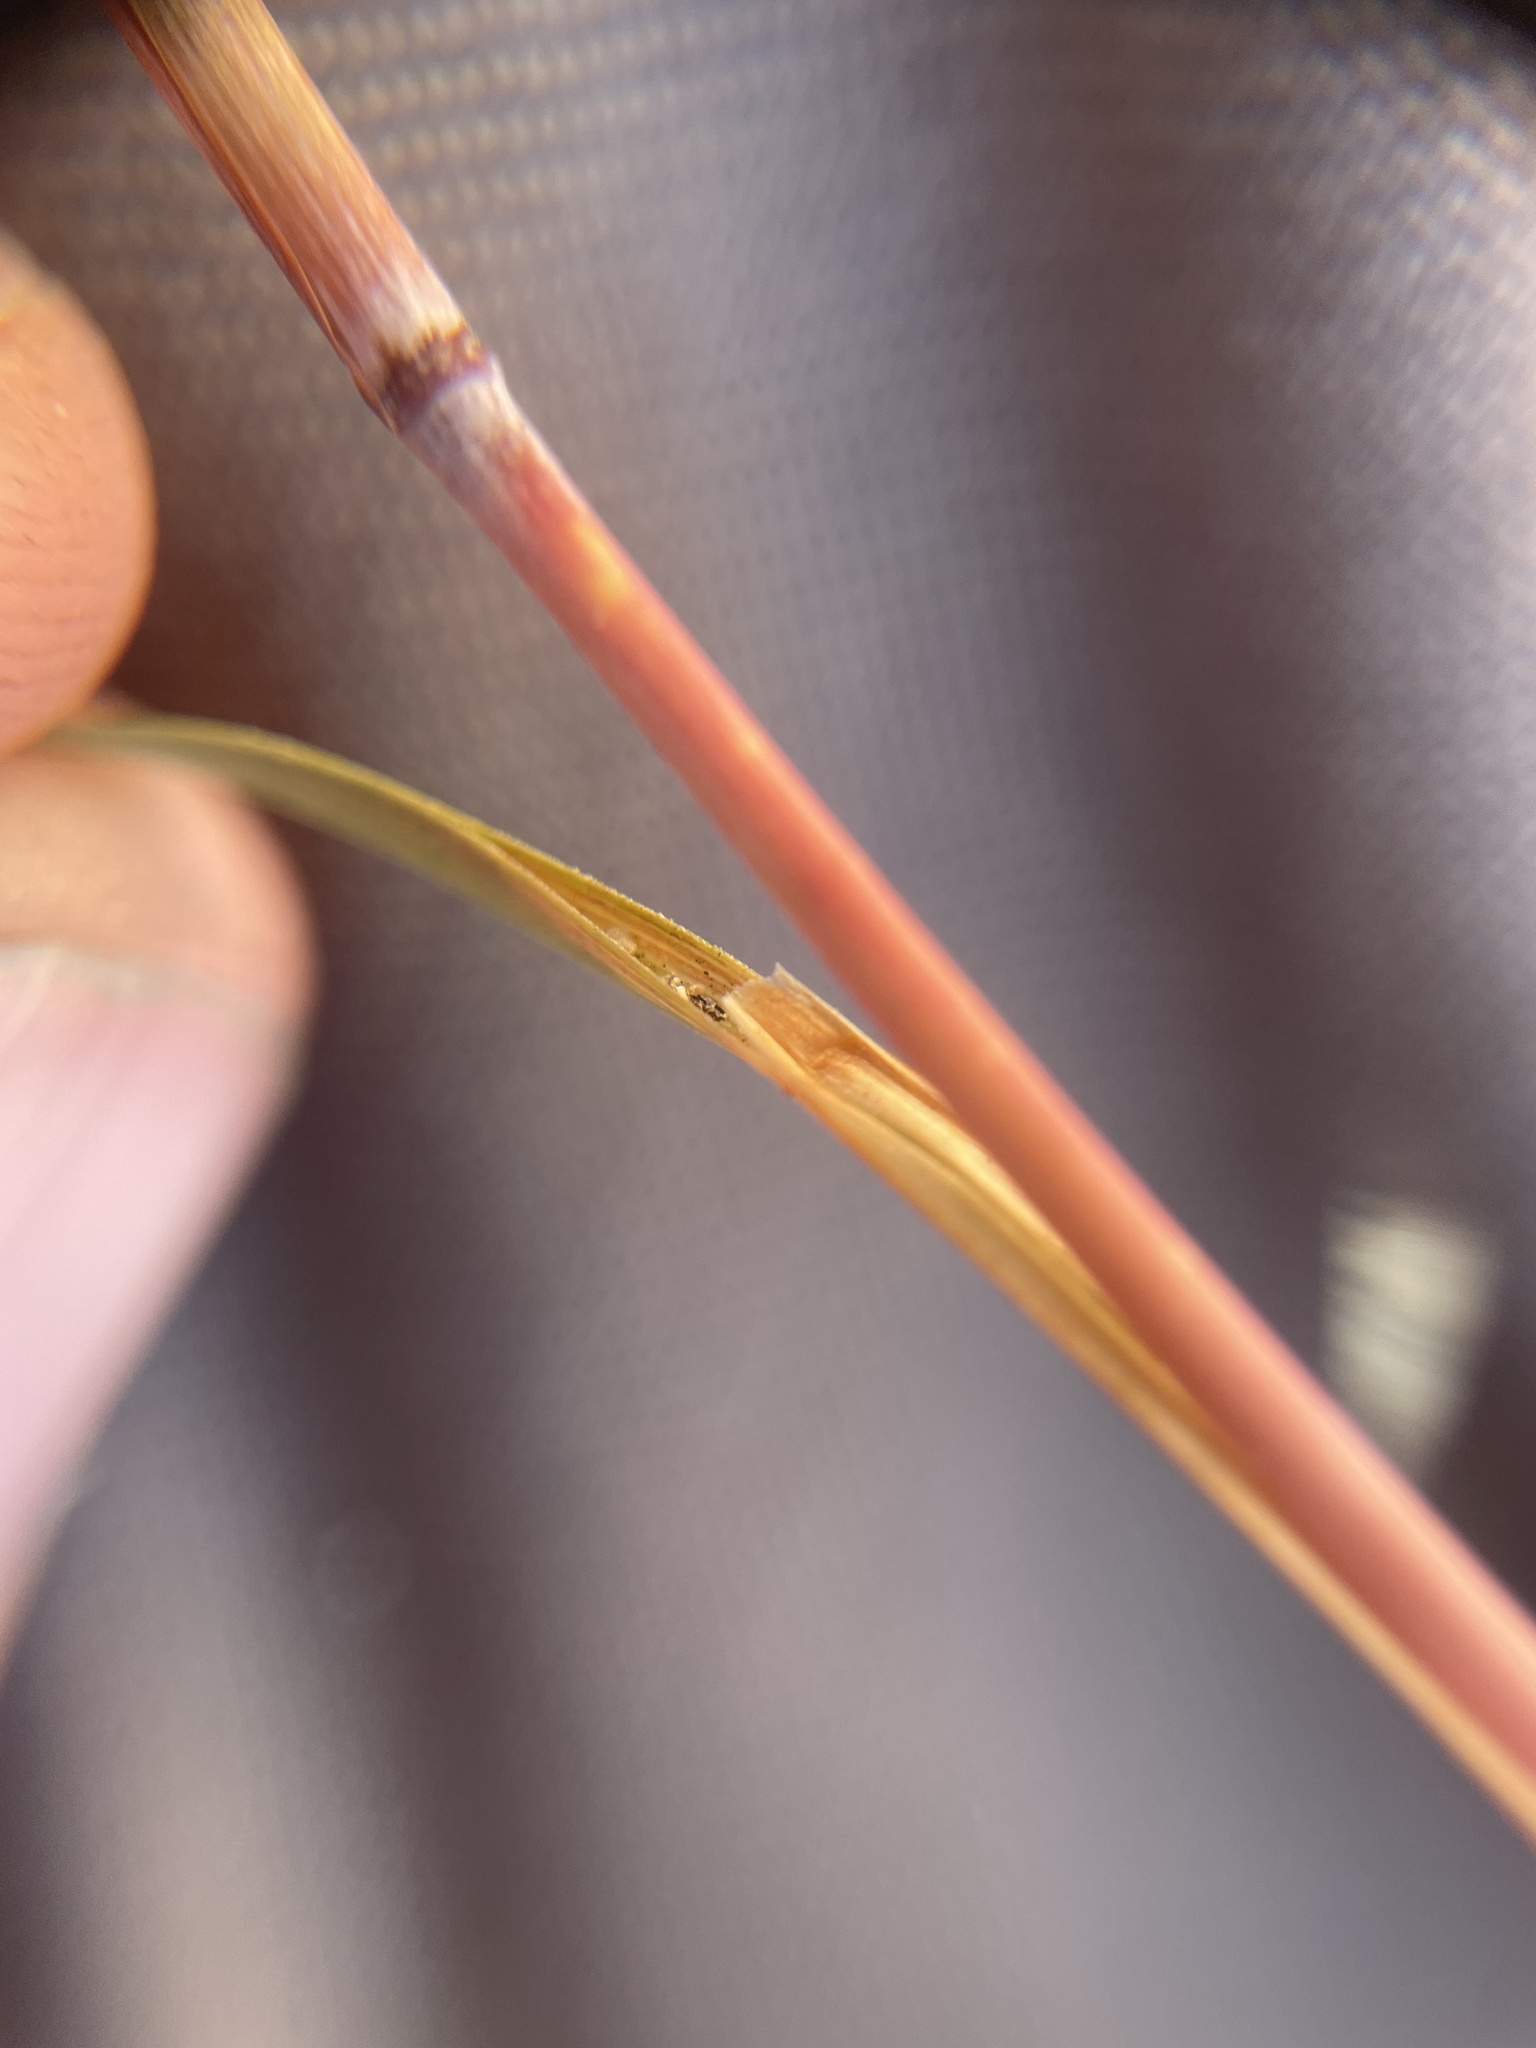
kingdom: Plantae
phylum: Tracheophyta
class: Liliopsida
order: Poales
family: Poaceae
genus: Schizachyrium
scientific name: Schizachyrium scoparium
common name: Little bluestem
